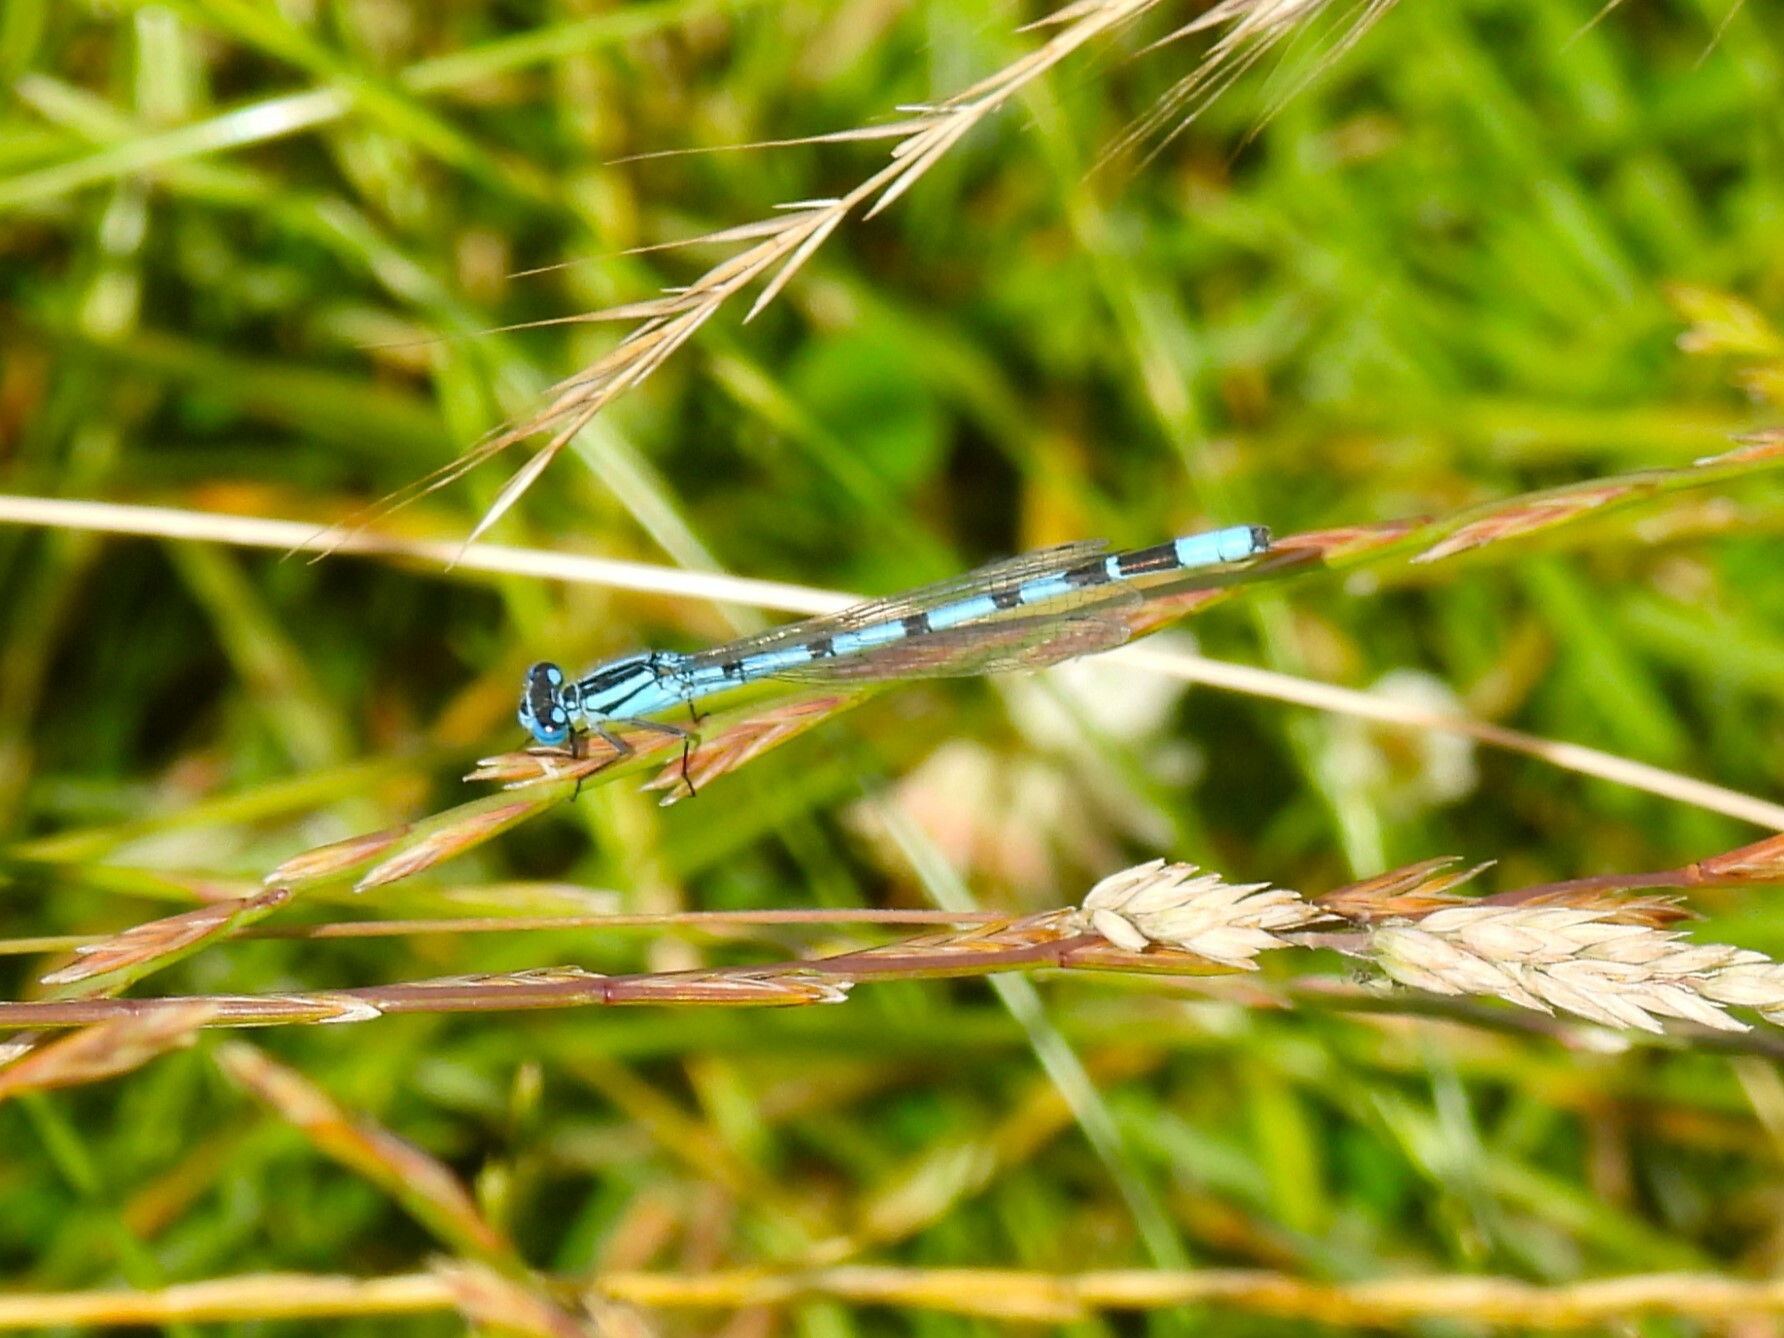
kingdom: Animalia
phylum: Arthropoda
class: Insecta
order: Odonata
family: Coenagrionidae
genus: Enallagma
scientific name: Enallagma cyathigerum
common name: Common blue damselfly
